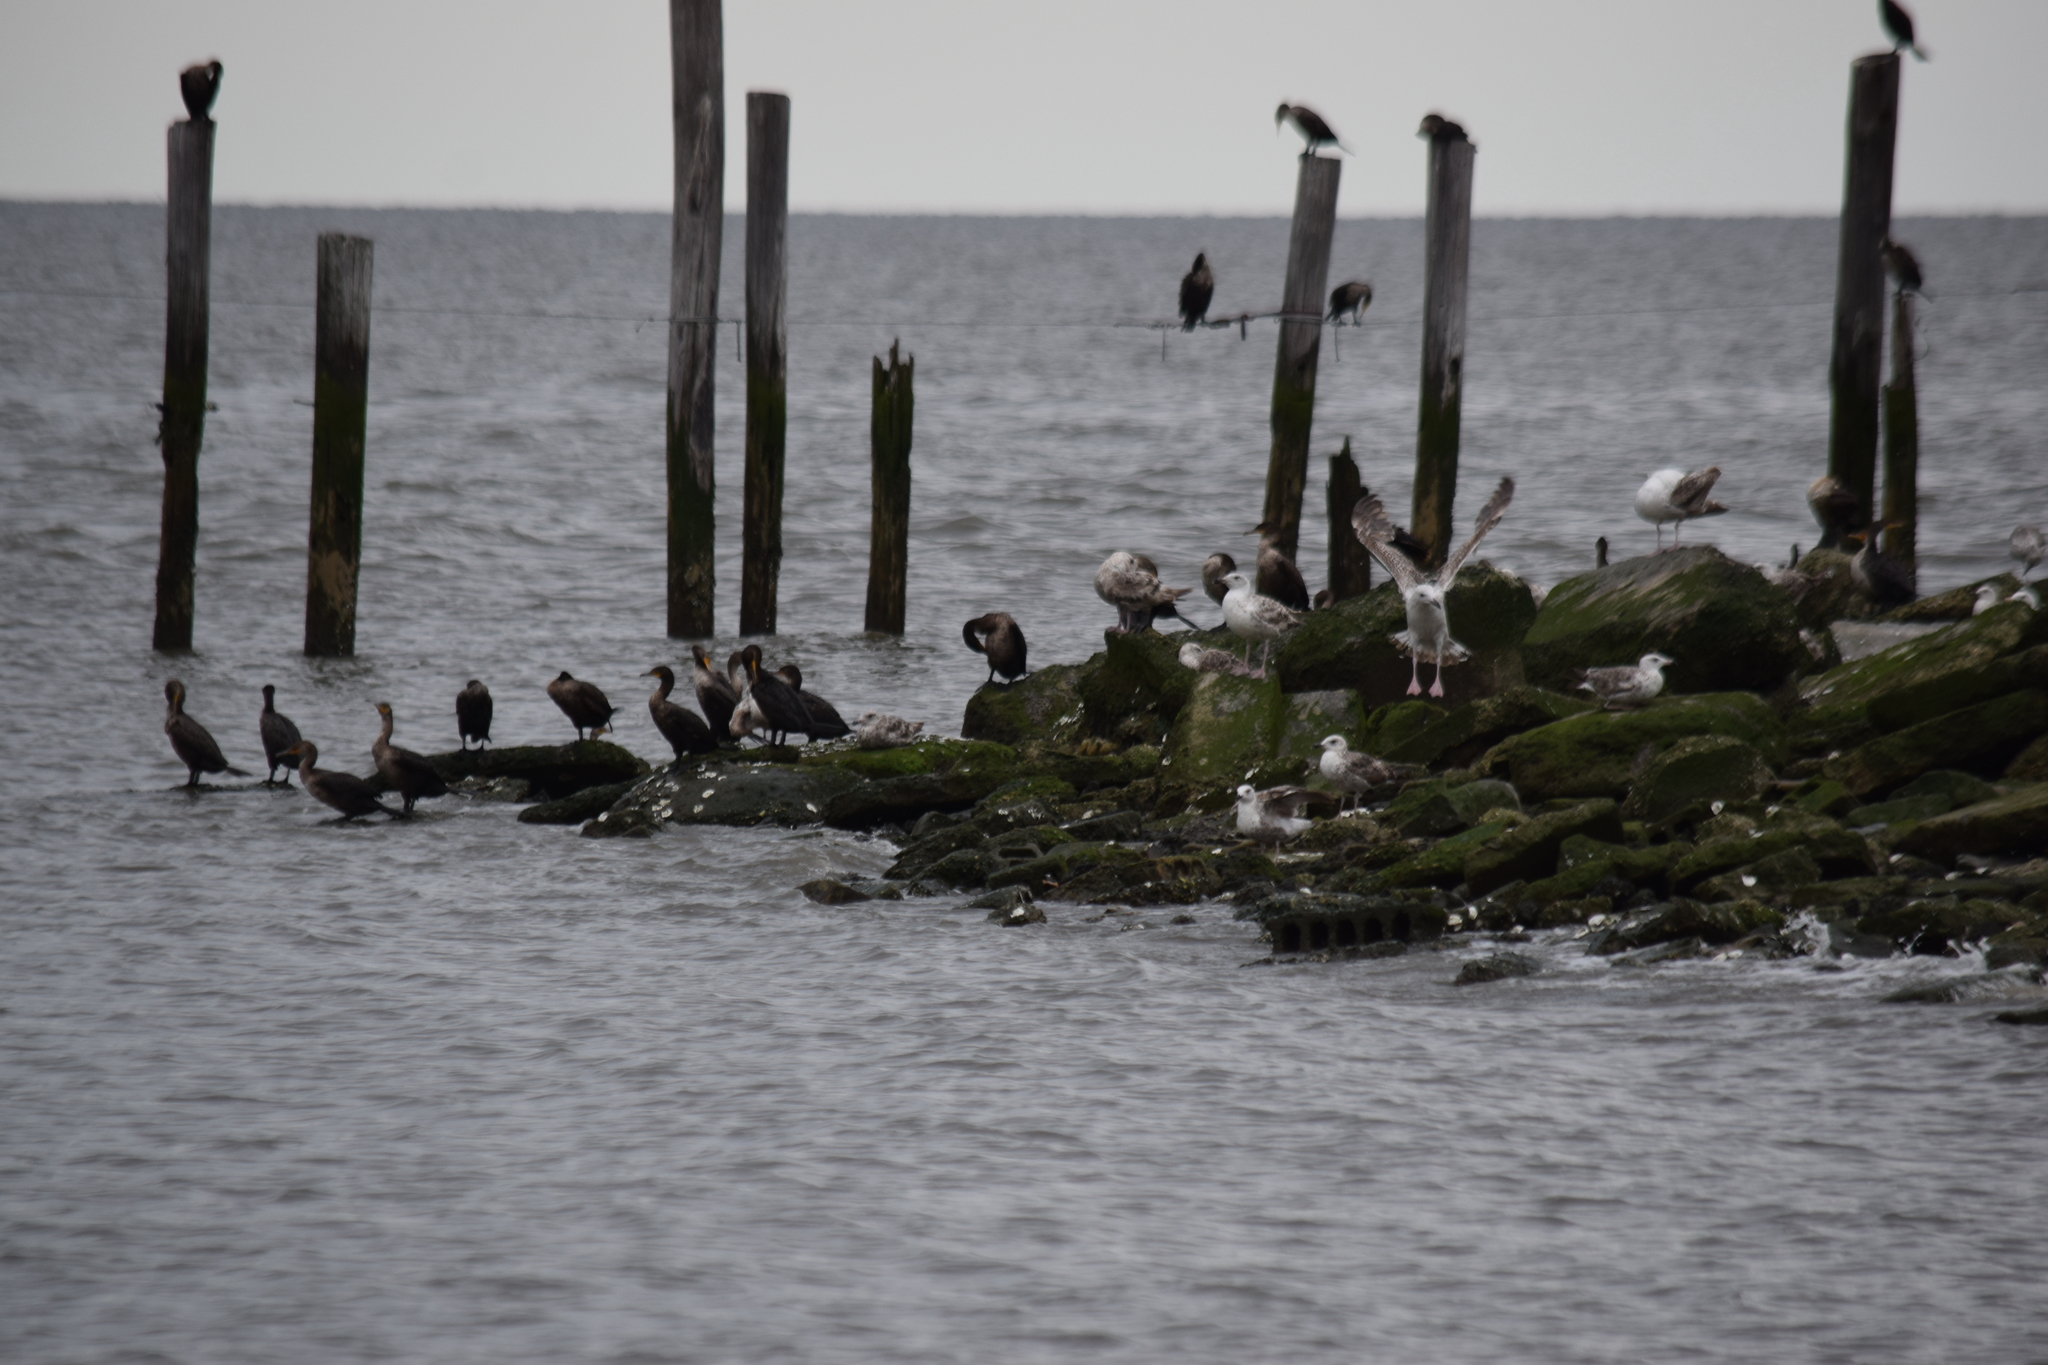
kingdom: Animalia
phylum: Chordata
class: Aves
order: Suliformes
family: Phalacrocoracidae
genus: Phalacrocorax
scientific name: Phalacrocorax auritus
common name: Double-crested cormorant
